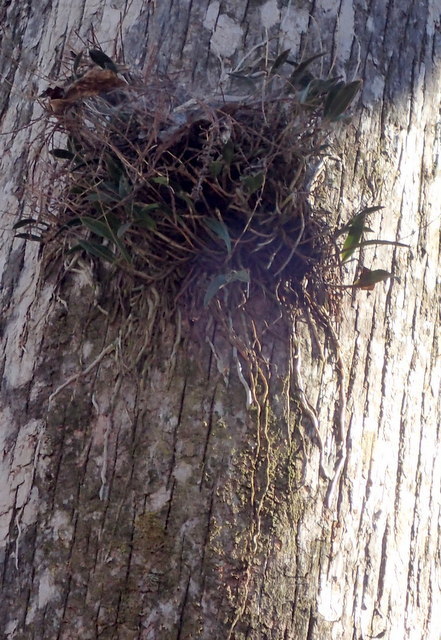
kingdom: Plantae
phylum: Tracheophyta
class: Liliopsida
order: Asparagales
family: Orchidaceae
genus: Epidendrum
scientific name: Epidendrum conopseum
